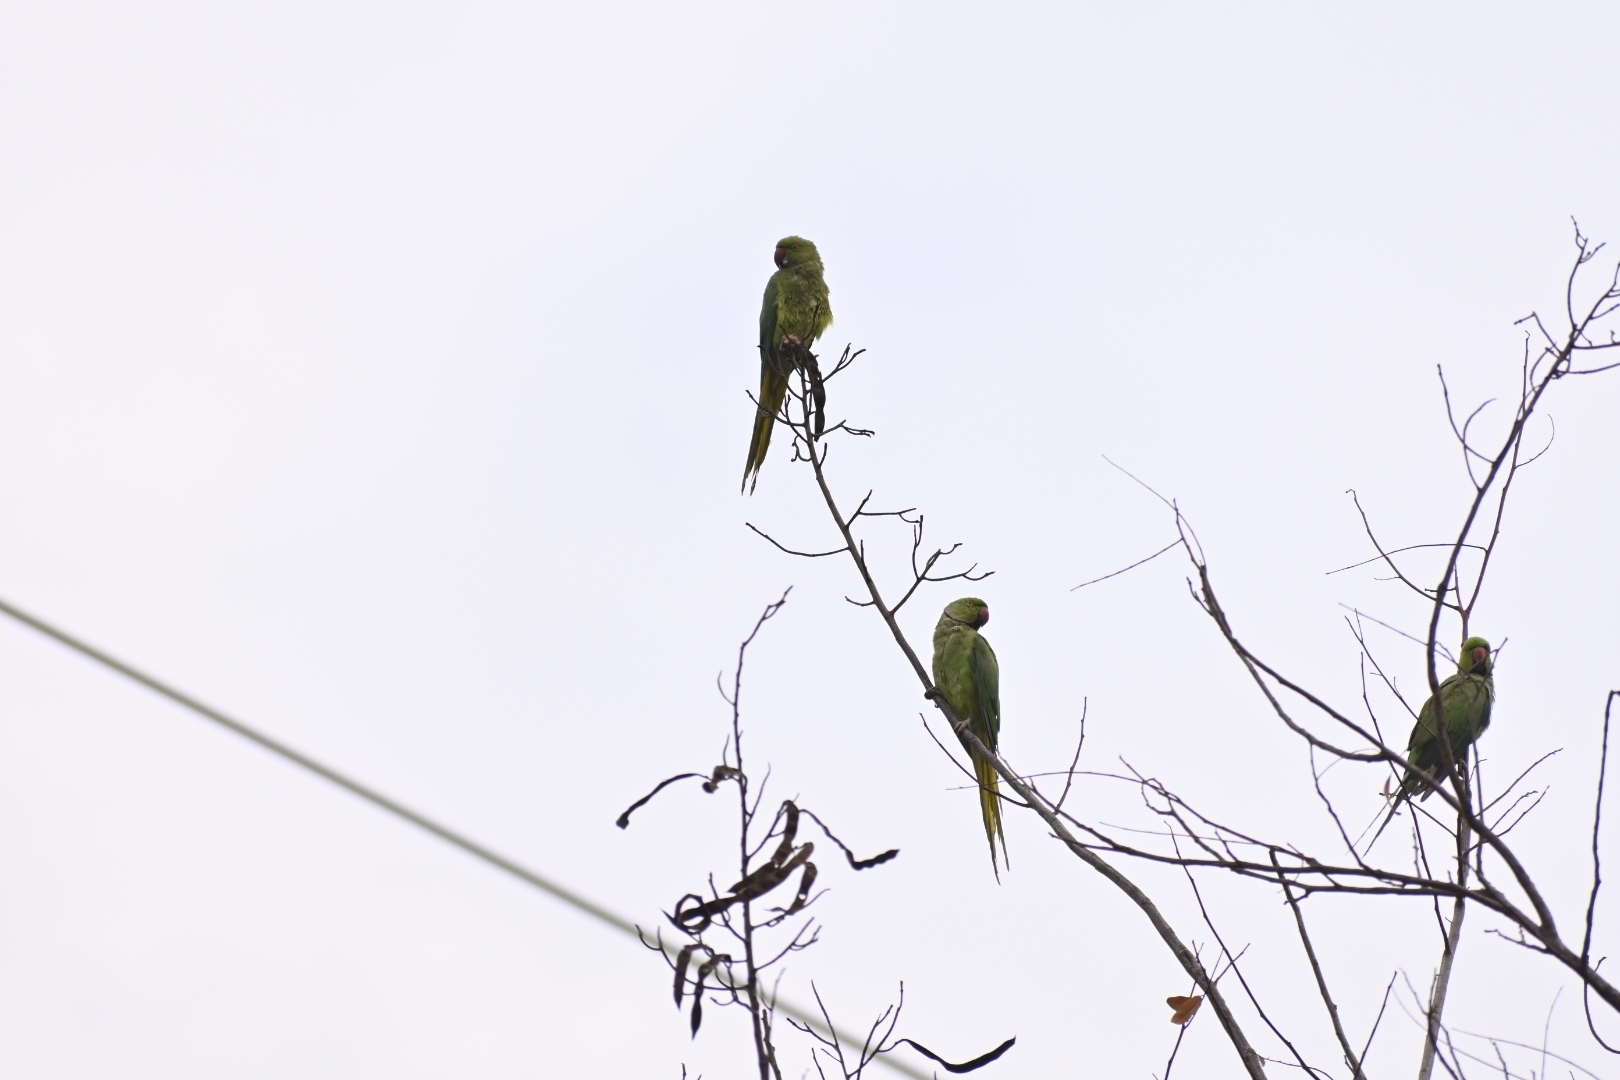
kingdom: Animalia
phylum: Chordata
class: Aves
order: Psittaciformes
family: Psittacidae
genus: Psittacula
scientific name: Psittacula krameri
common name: Rose-ringed parakeet
